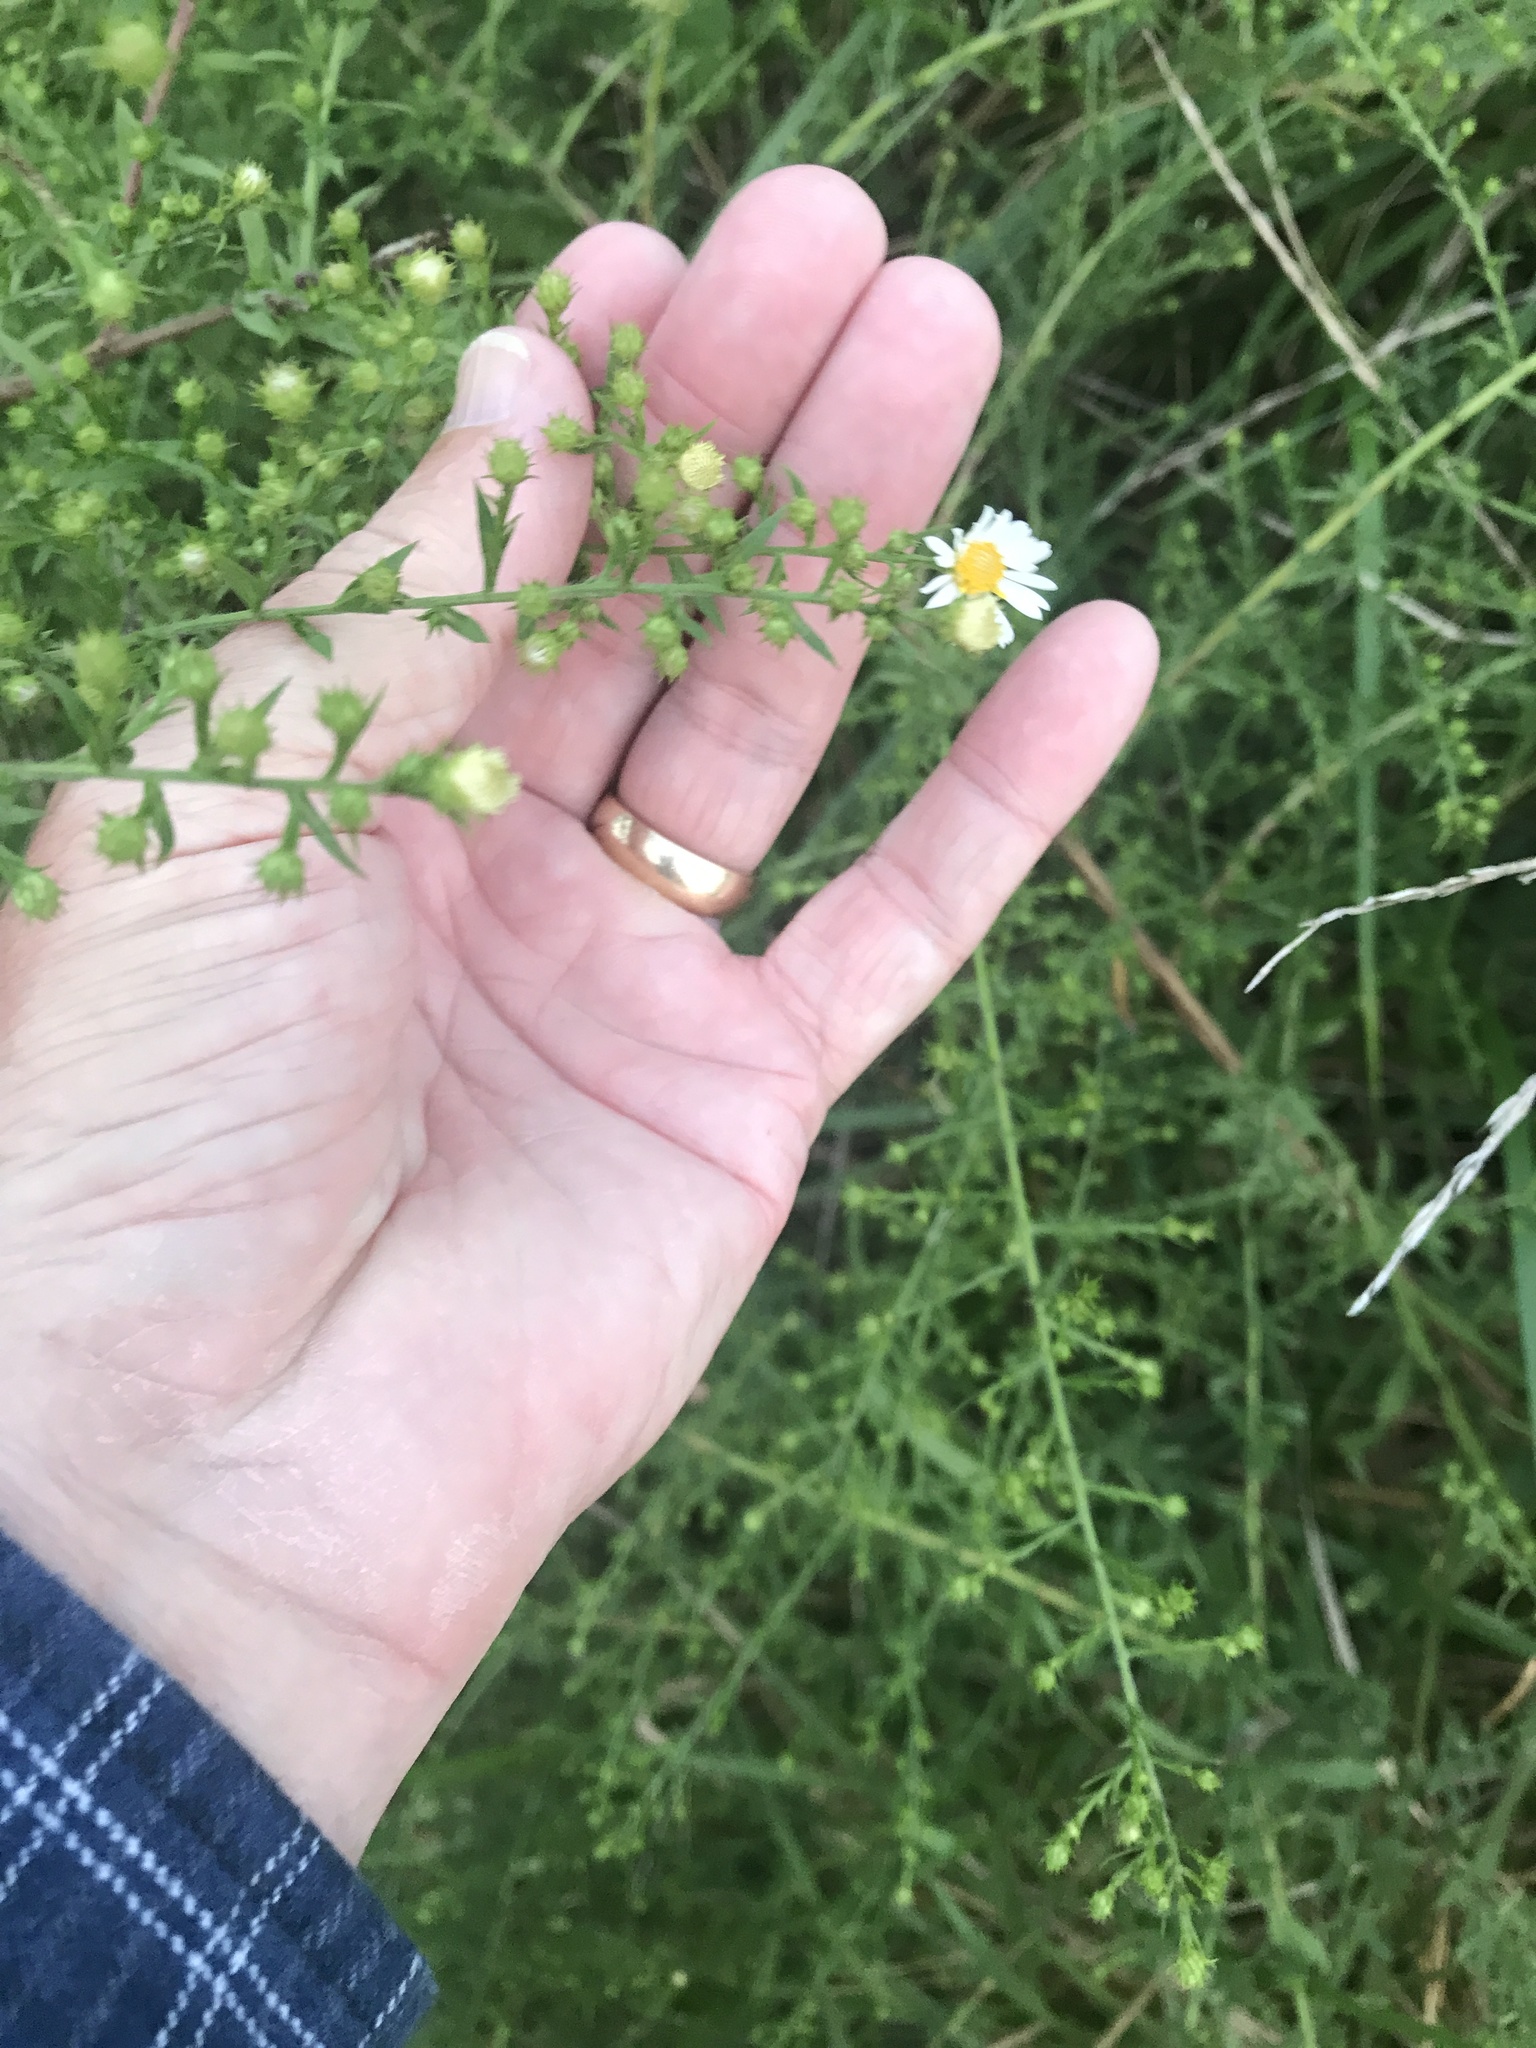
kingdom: Plantae
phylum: Tracheophyta
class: Magnoliopsida
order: Asterales
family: Asteraceae
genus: Symphyotrichum
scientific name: Symphyotrichum pilosum
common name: Awl aster
